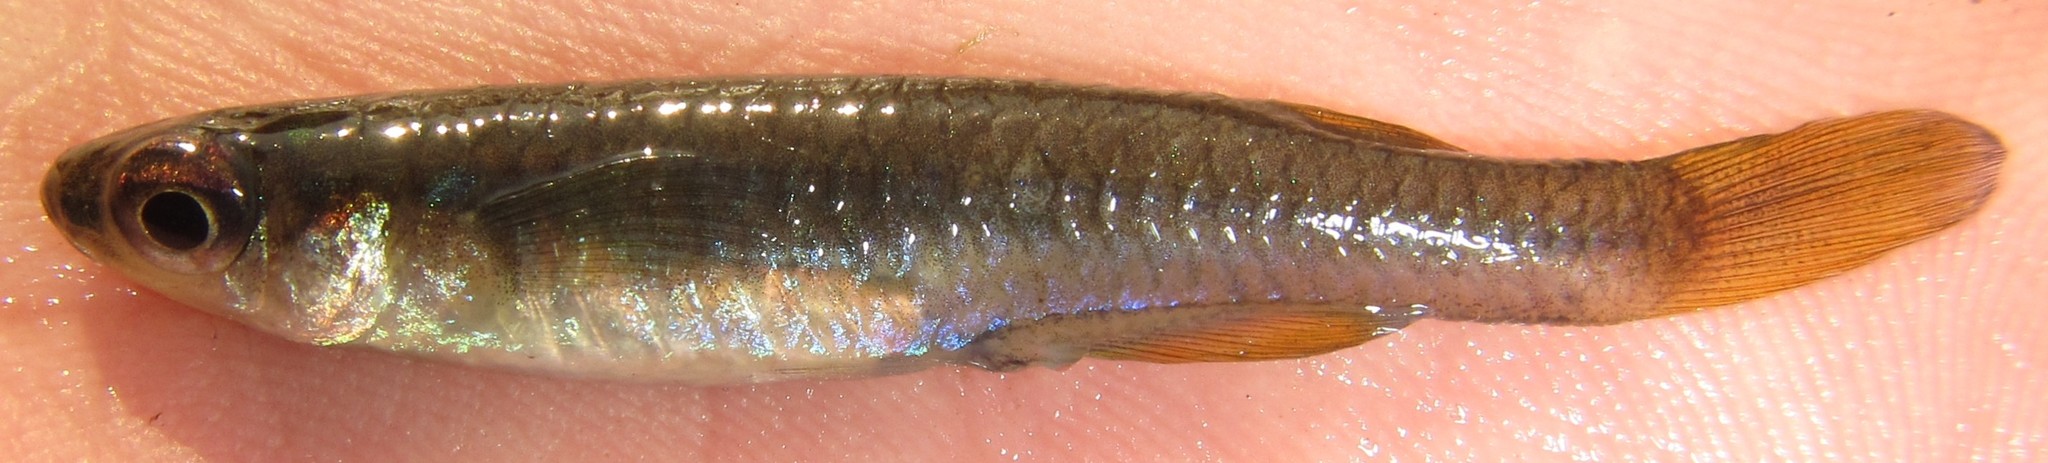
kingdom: Animalia
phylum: Chordata
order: Cyprinodontiformes
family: Poeciliidae
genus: Micropanchax
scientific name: Micropanchax johnstoni
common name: Johnston's topminnow
